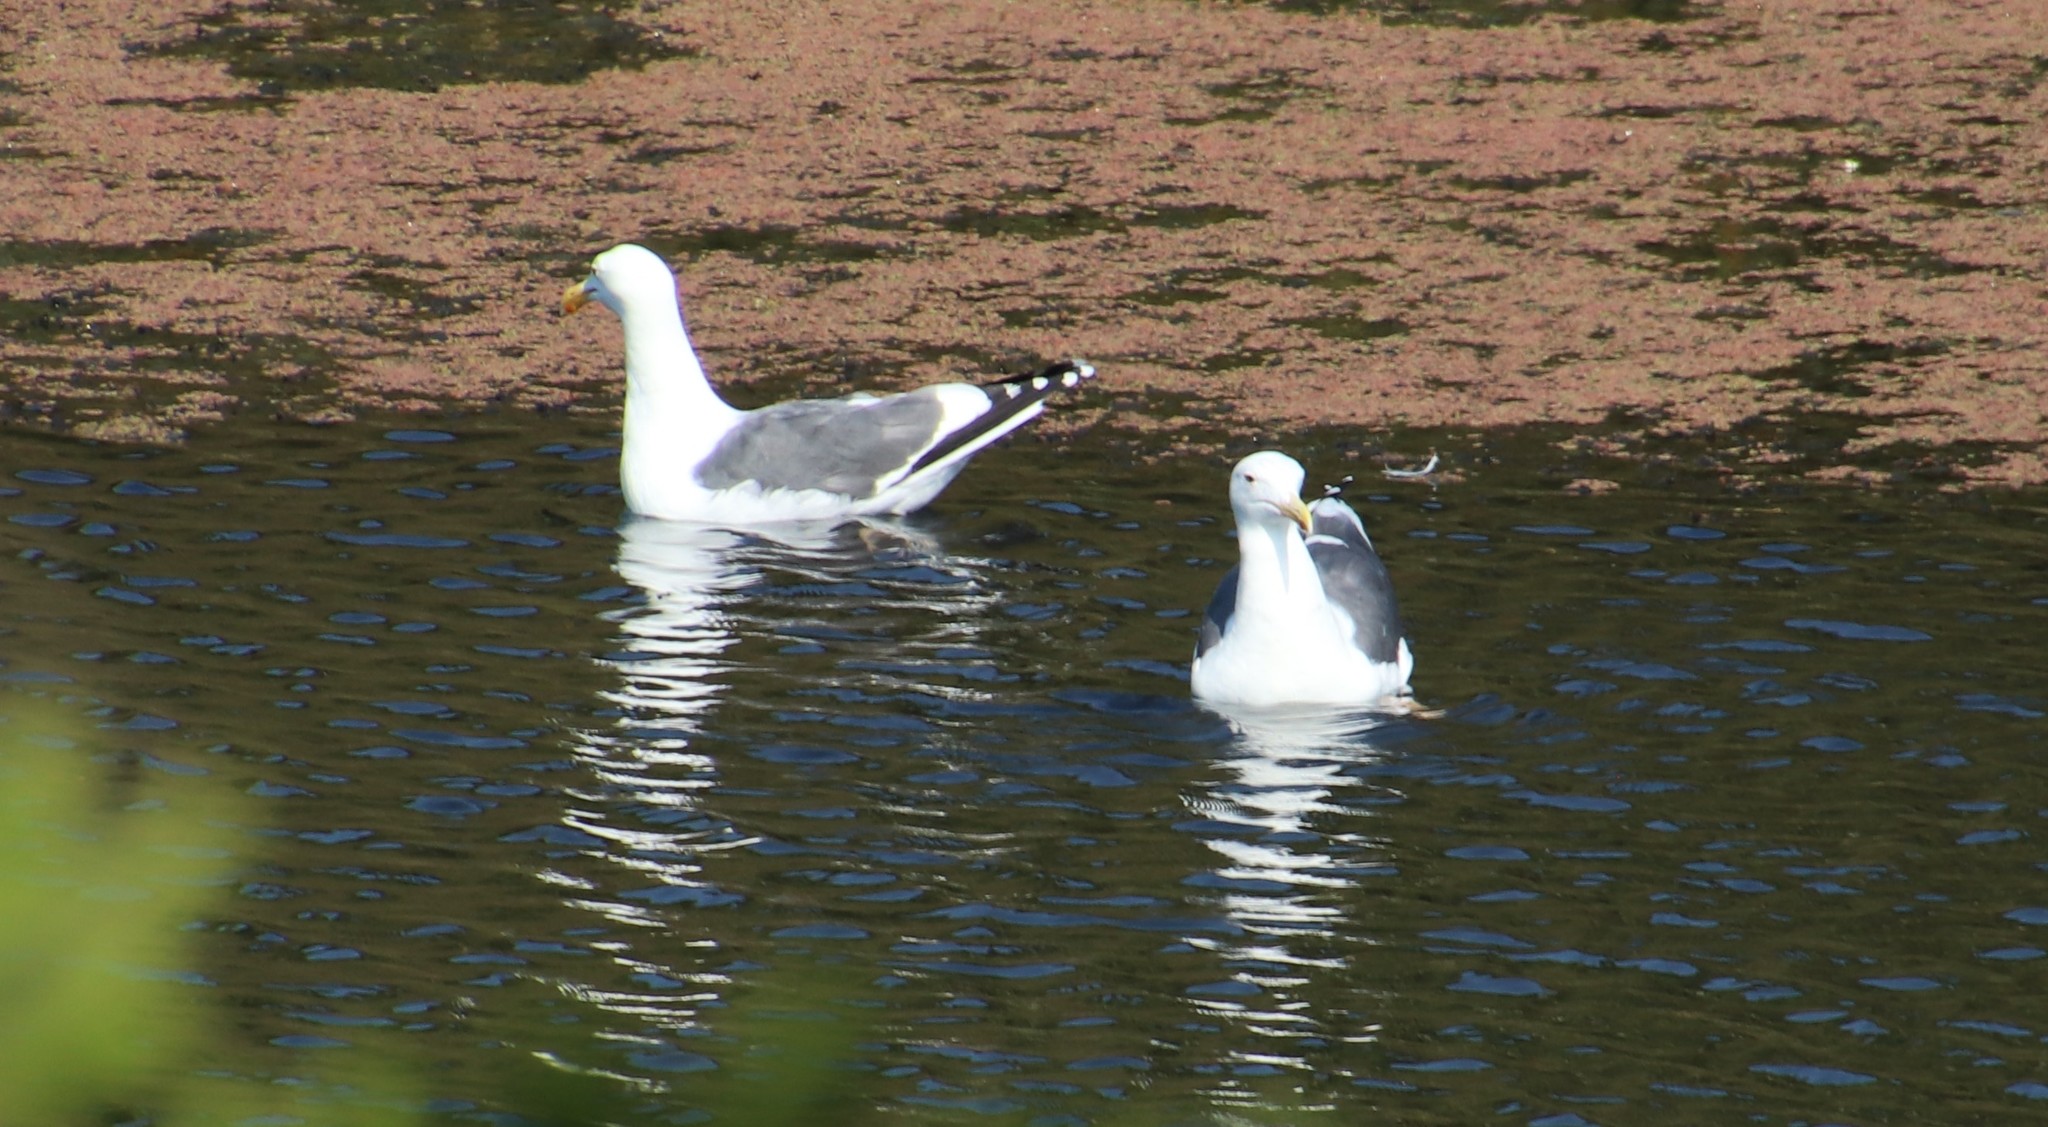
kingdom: Animalia
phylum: Chordata
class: Aves
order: Charadriiformes
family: Laridae
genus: Larus
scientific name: Larus occidentalis
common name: Western gull
